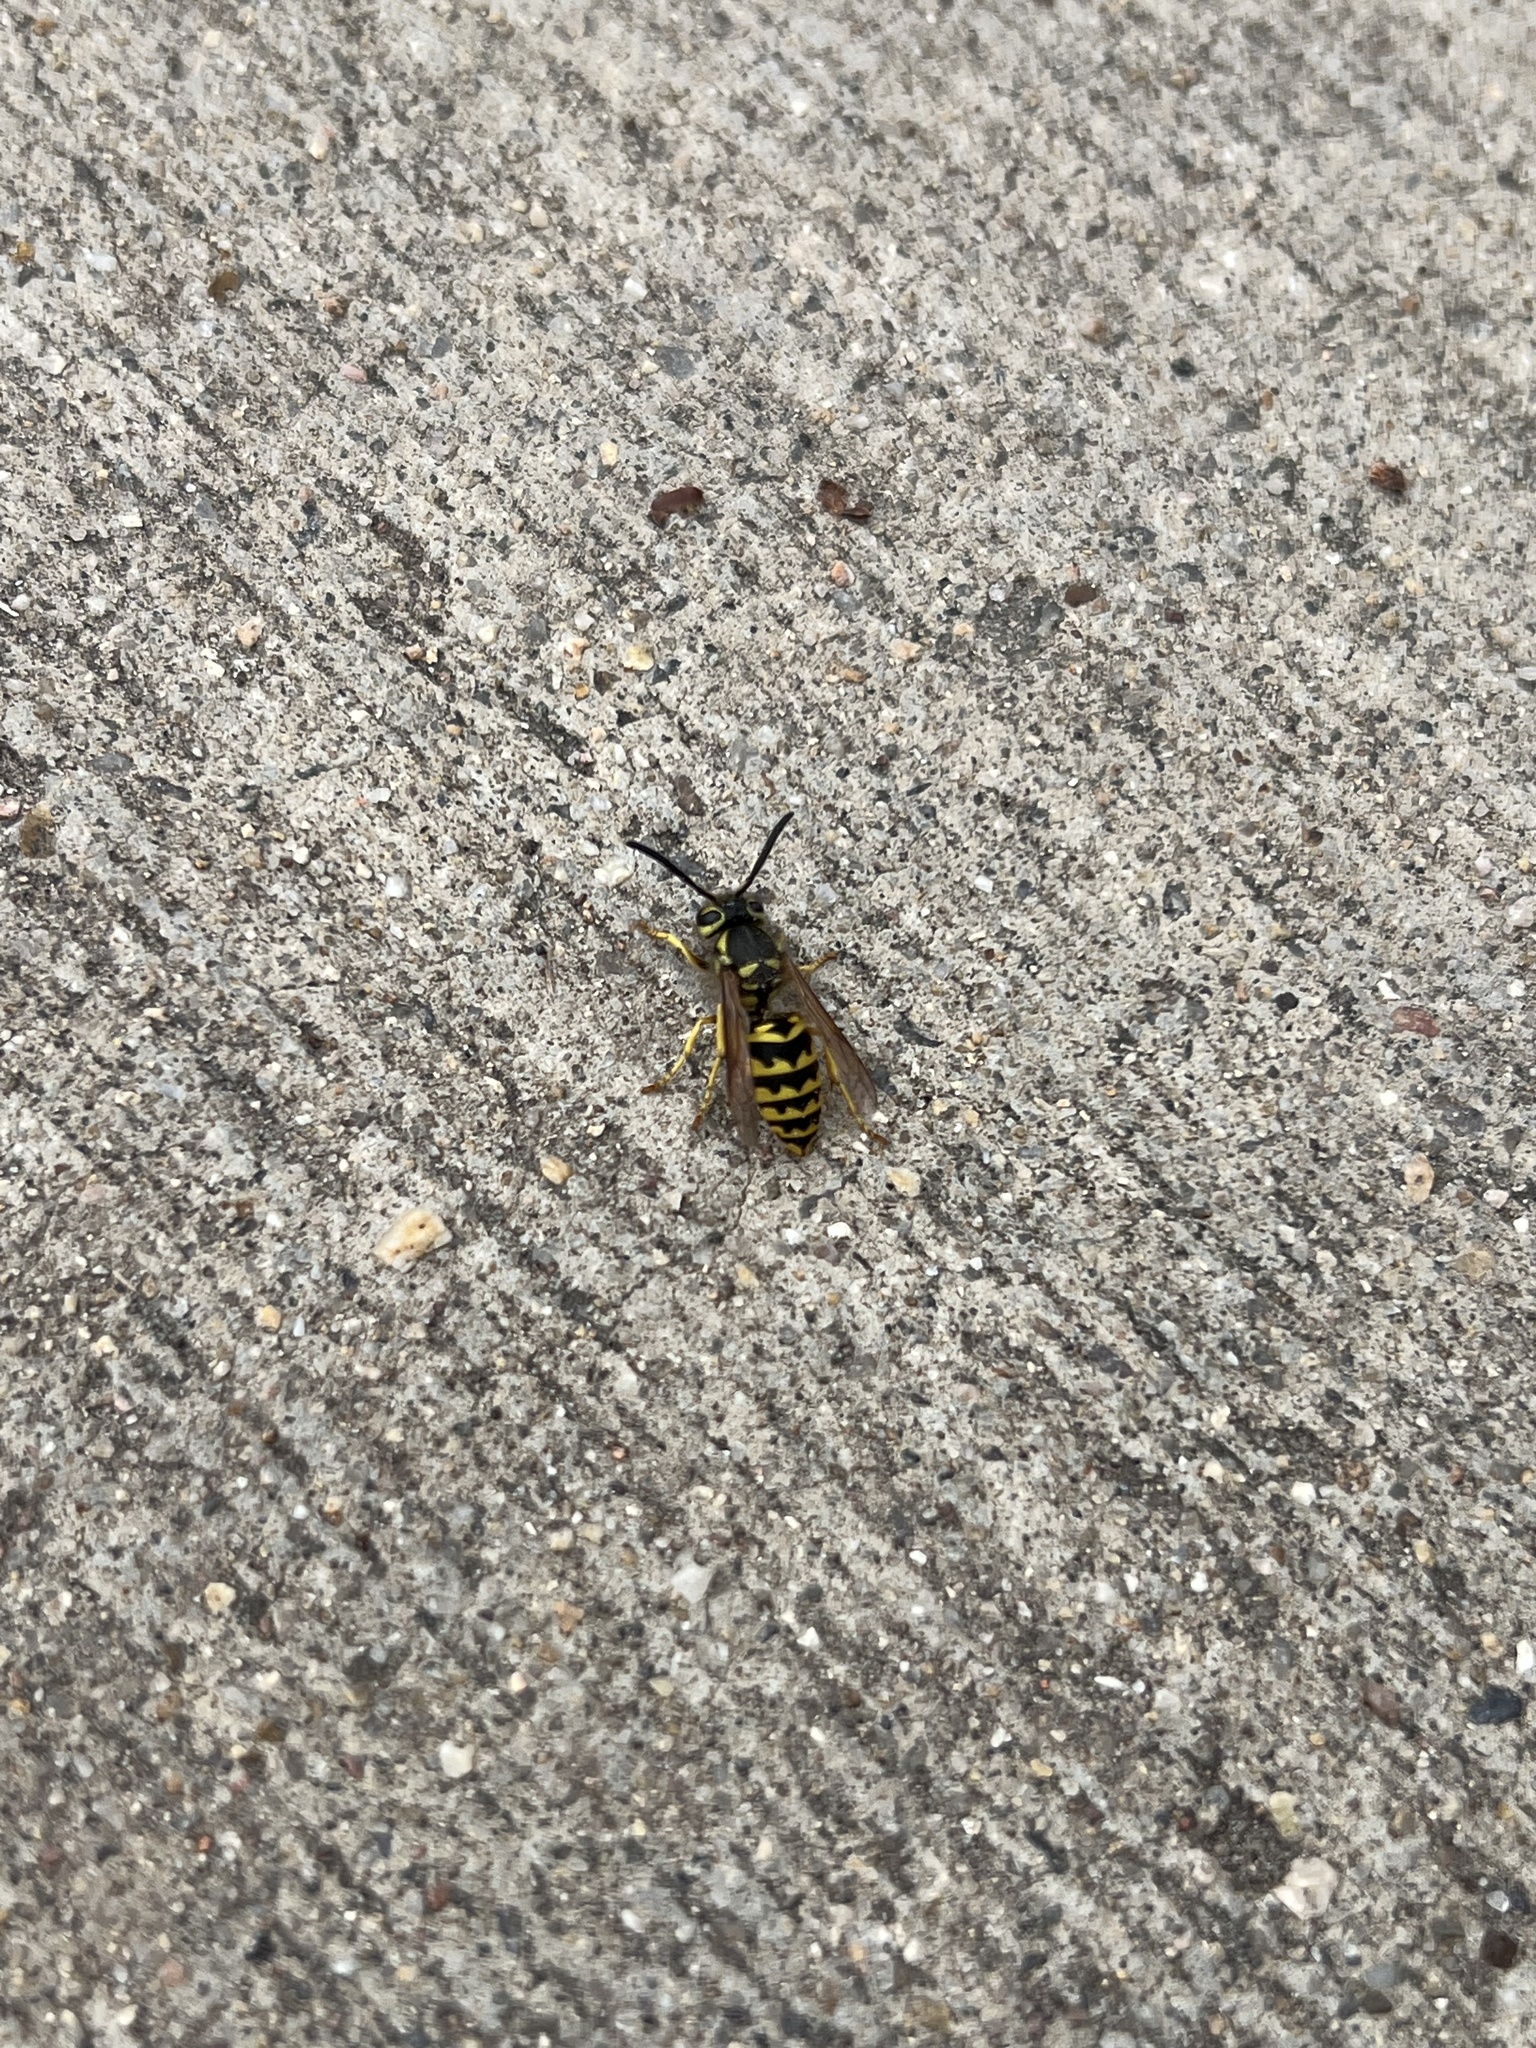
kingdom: Animalia
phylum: Arthropoda
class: Insecta
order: Hymenoptera
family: Vespidae
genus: Vespula
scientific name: Vespula pensylvanica
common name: Western yellowjacket
